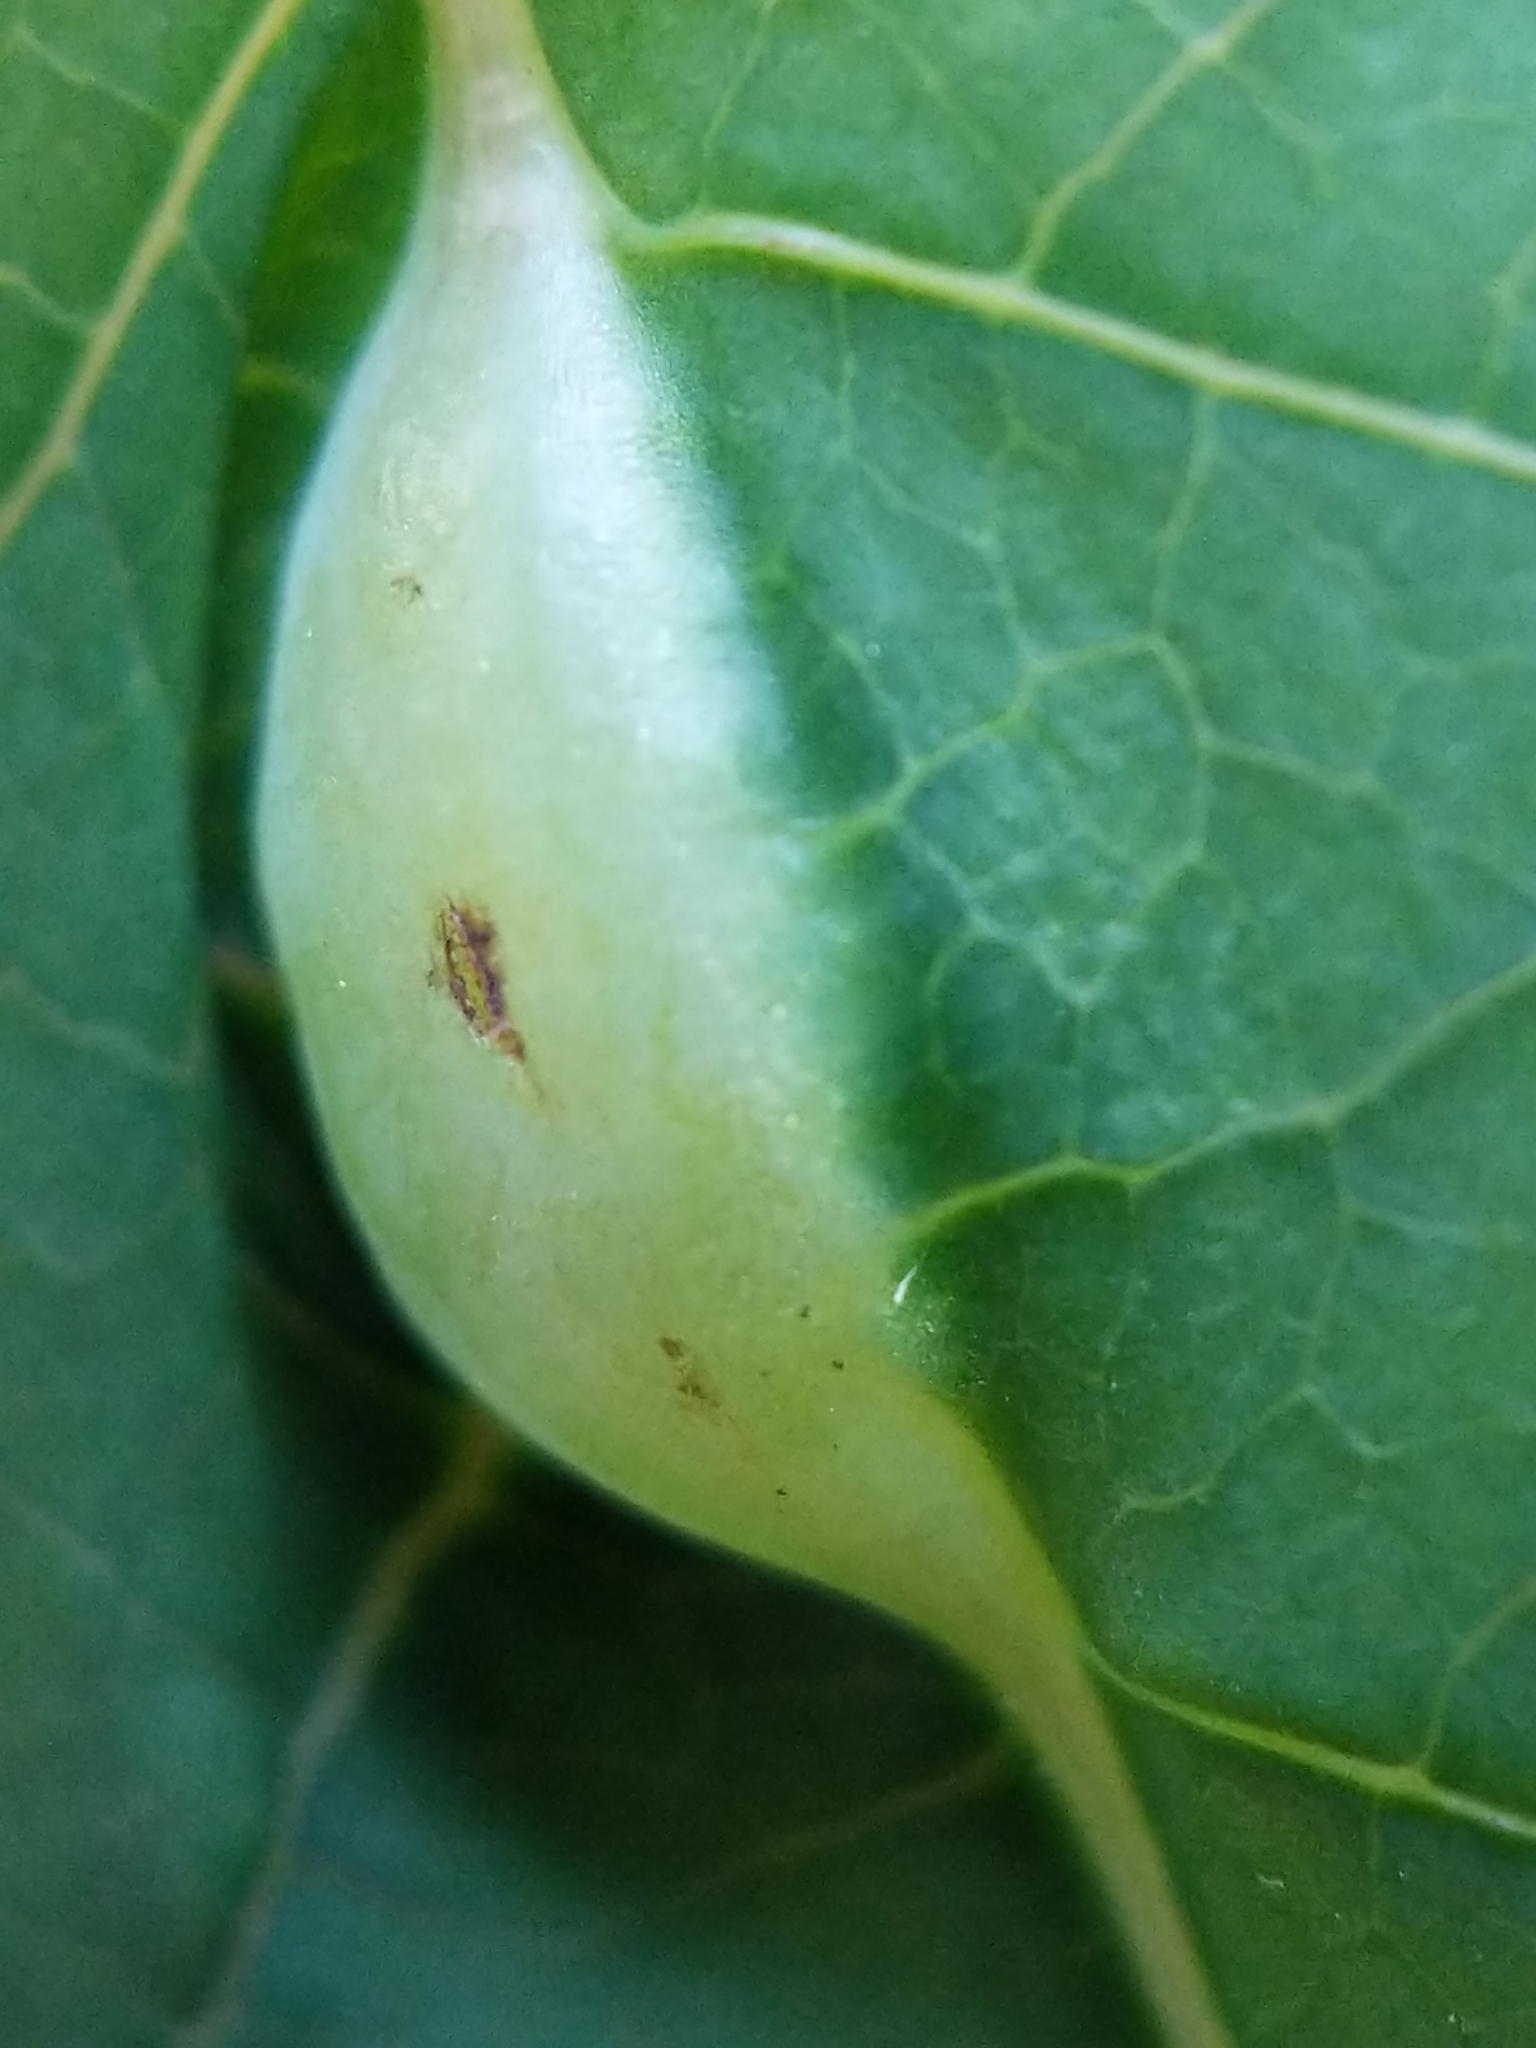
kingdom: Animalia
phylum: Arthropoda
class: Insecta
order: Diptera
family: Cecidomyiidae
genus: Neolasioptera
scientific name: Neolasioptera impatientifolia
